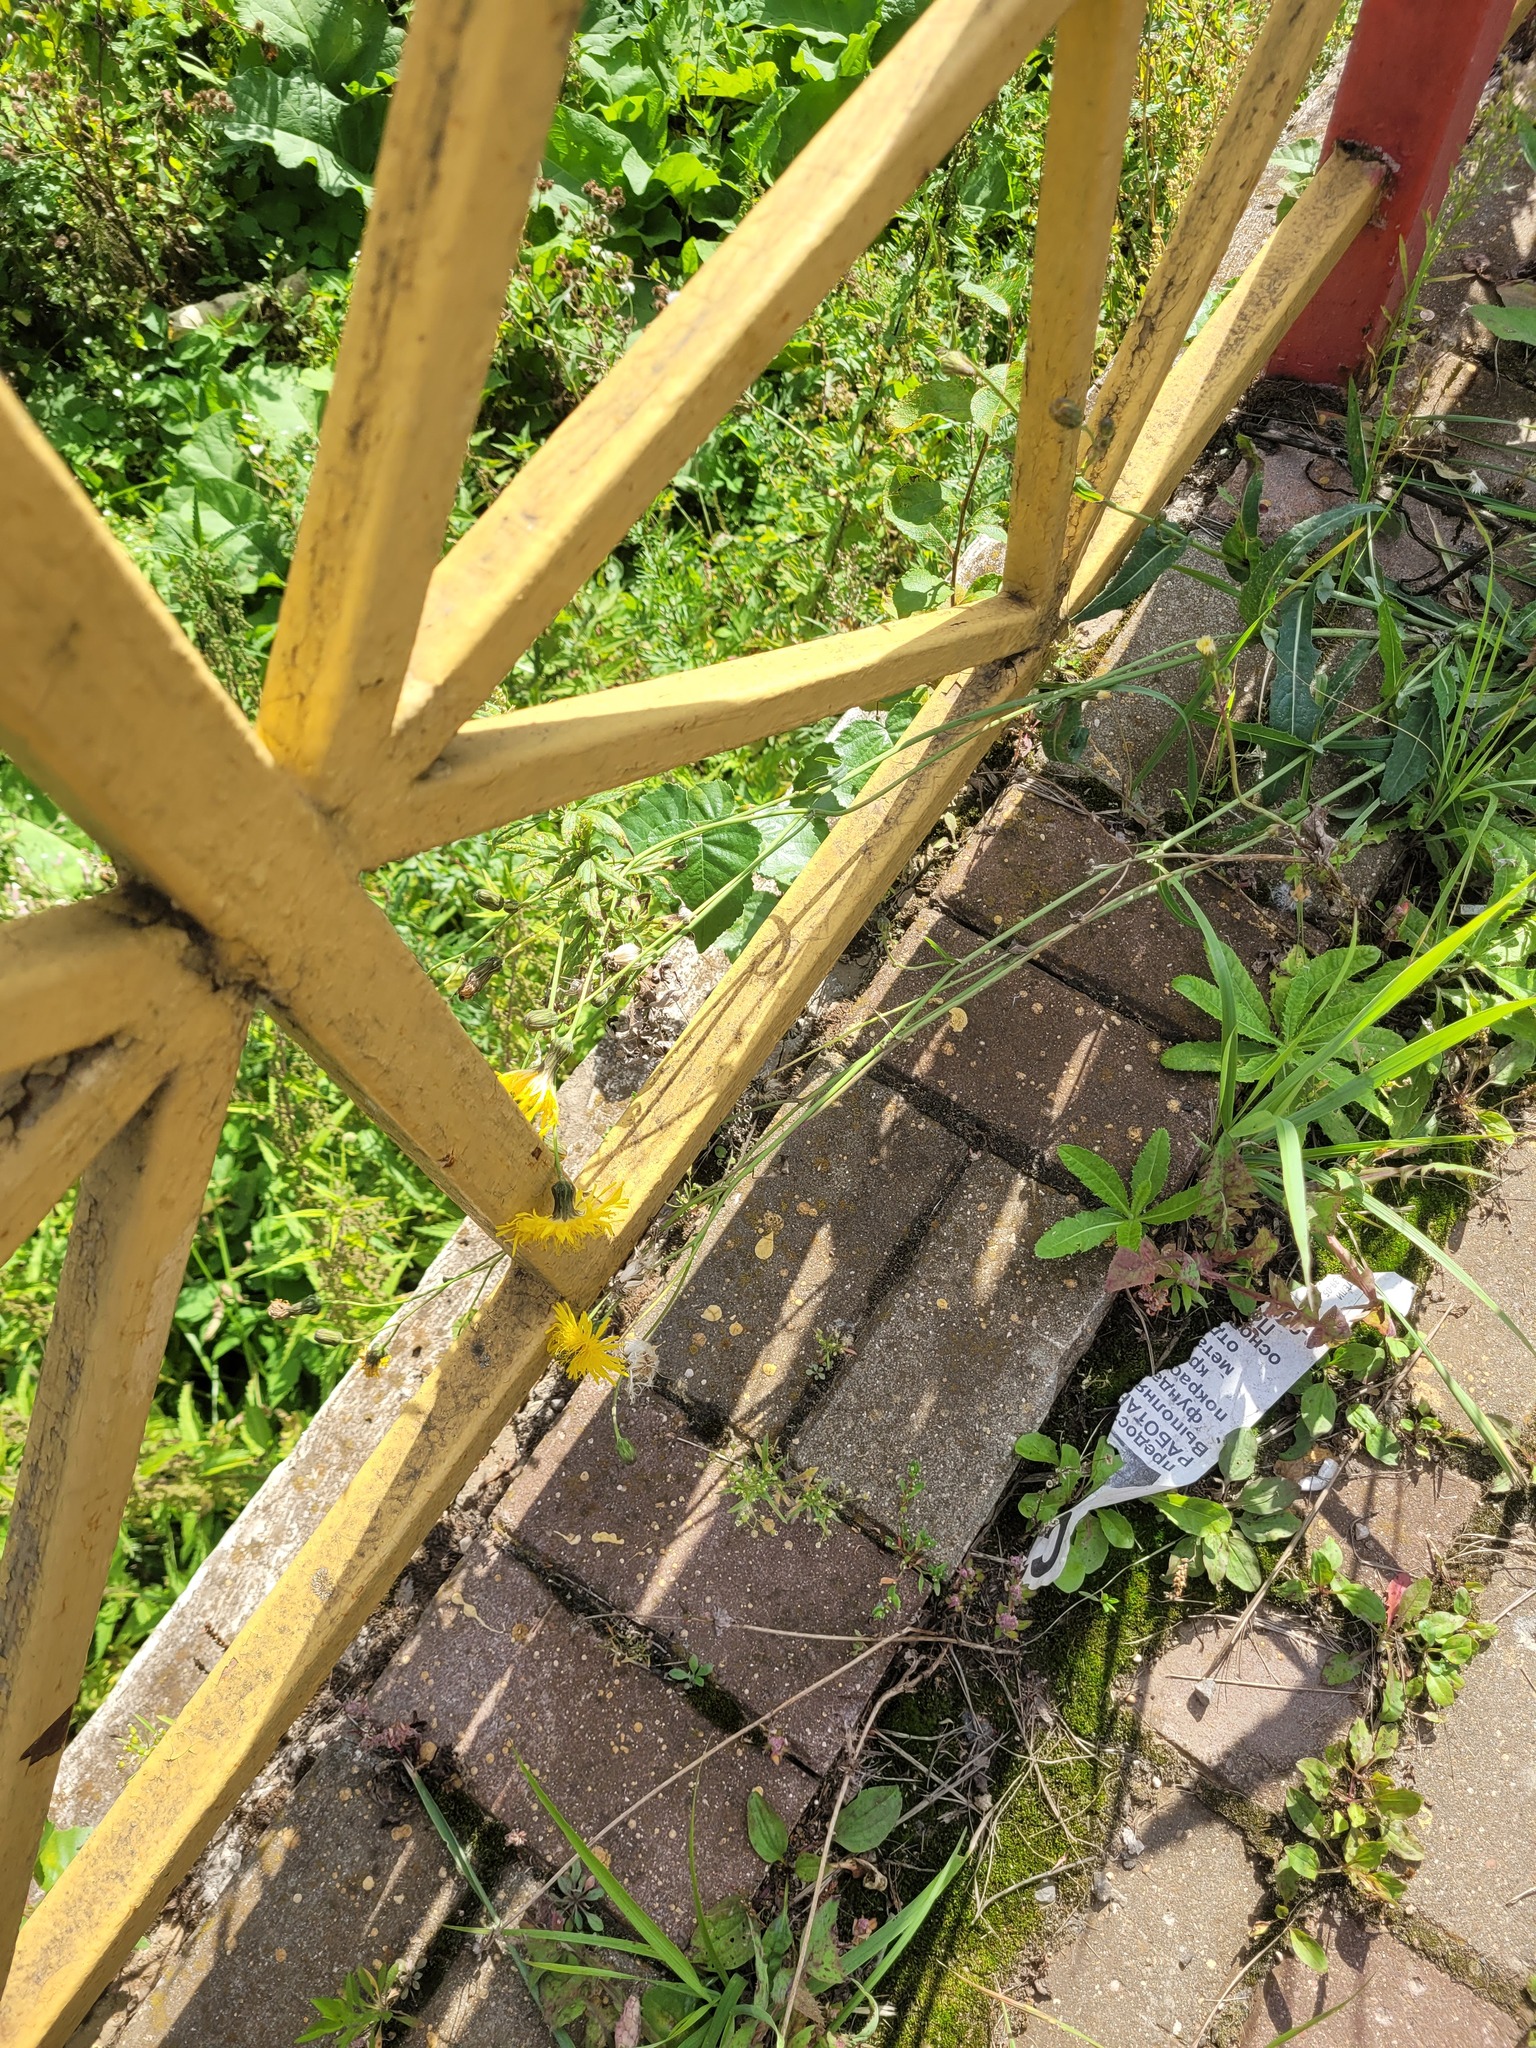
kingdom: Plantae
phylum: Tracheophyta
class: Magnoliopsida
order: Asterales
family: Asteraceae
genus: Sonchus
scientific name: Sonchus arvensis
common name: Perennial sow-thistle
